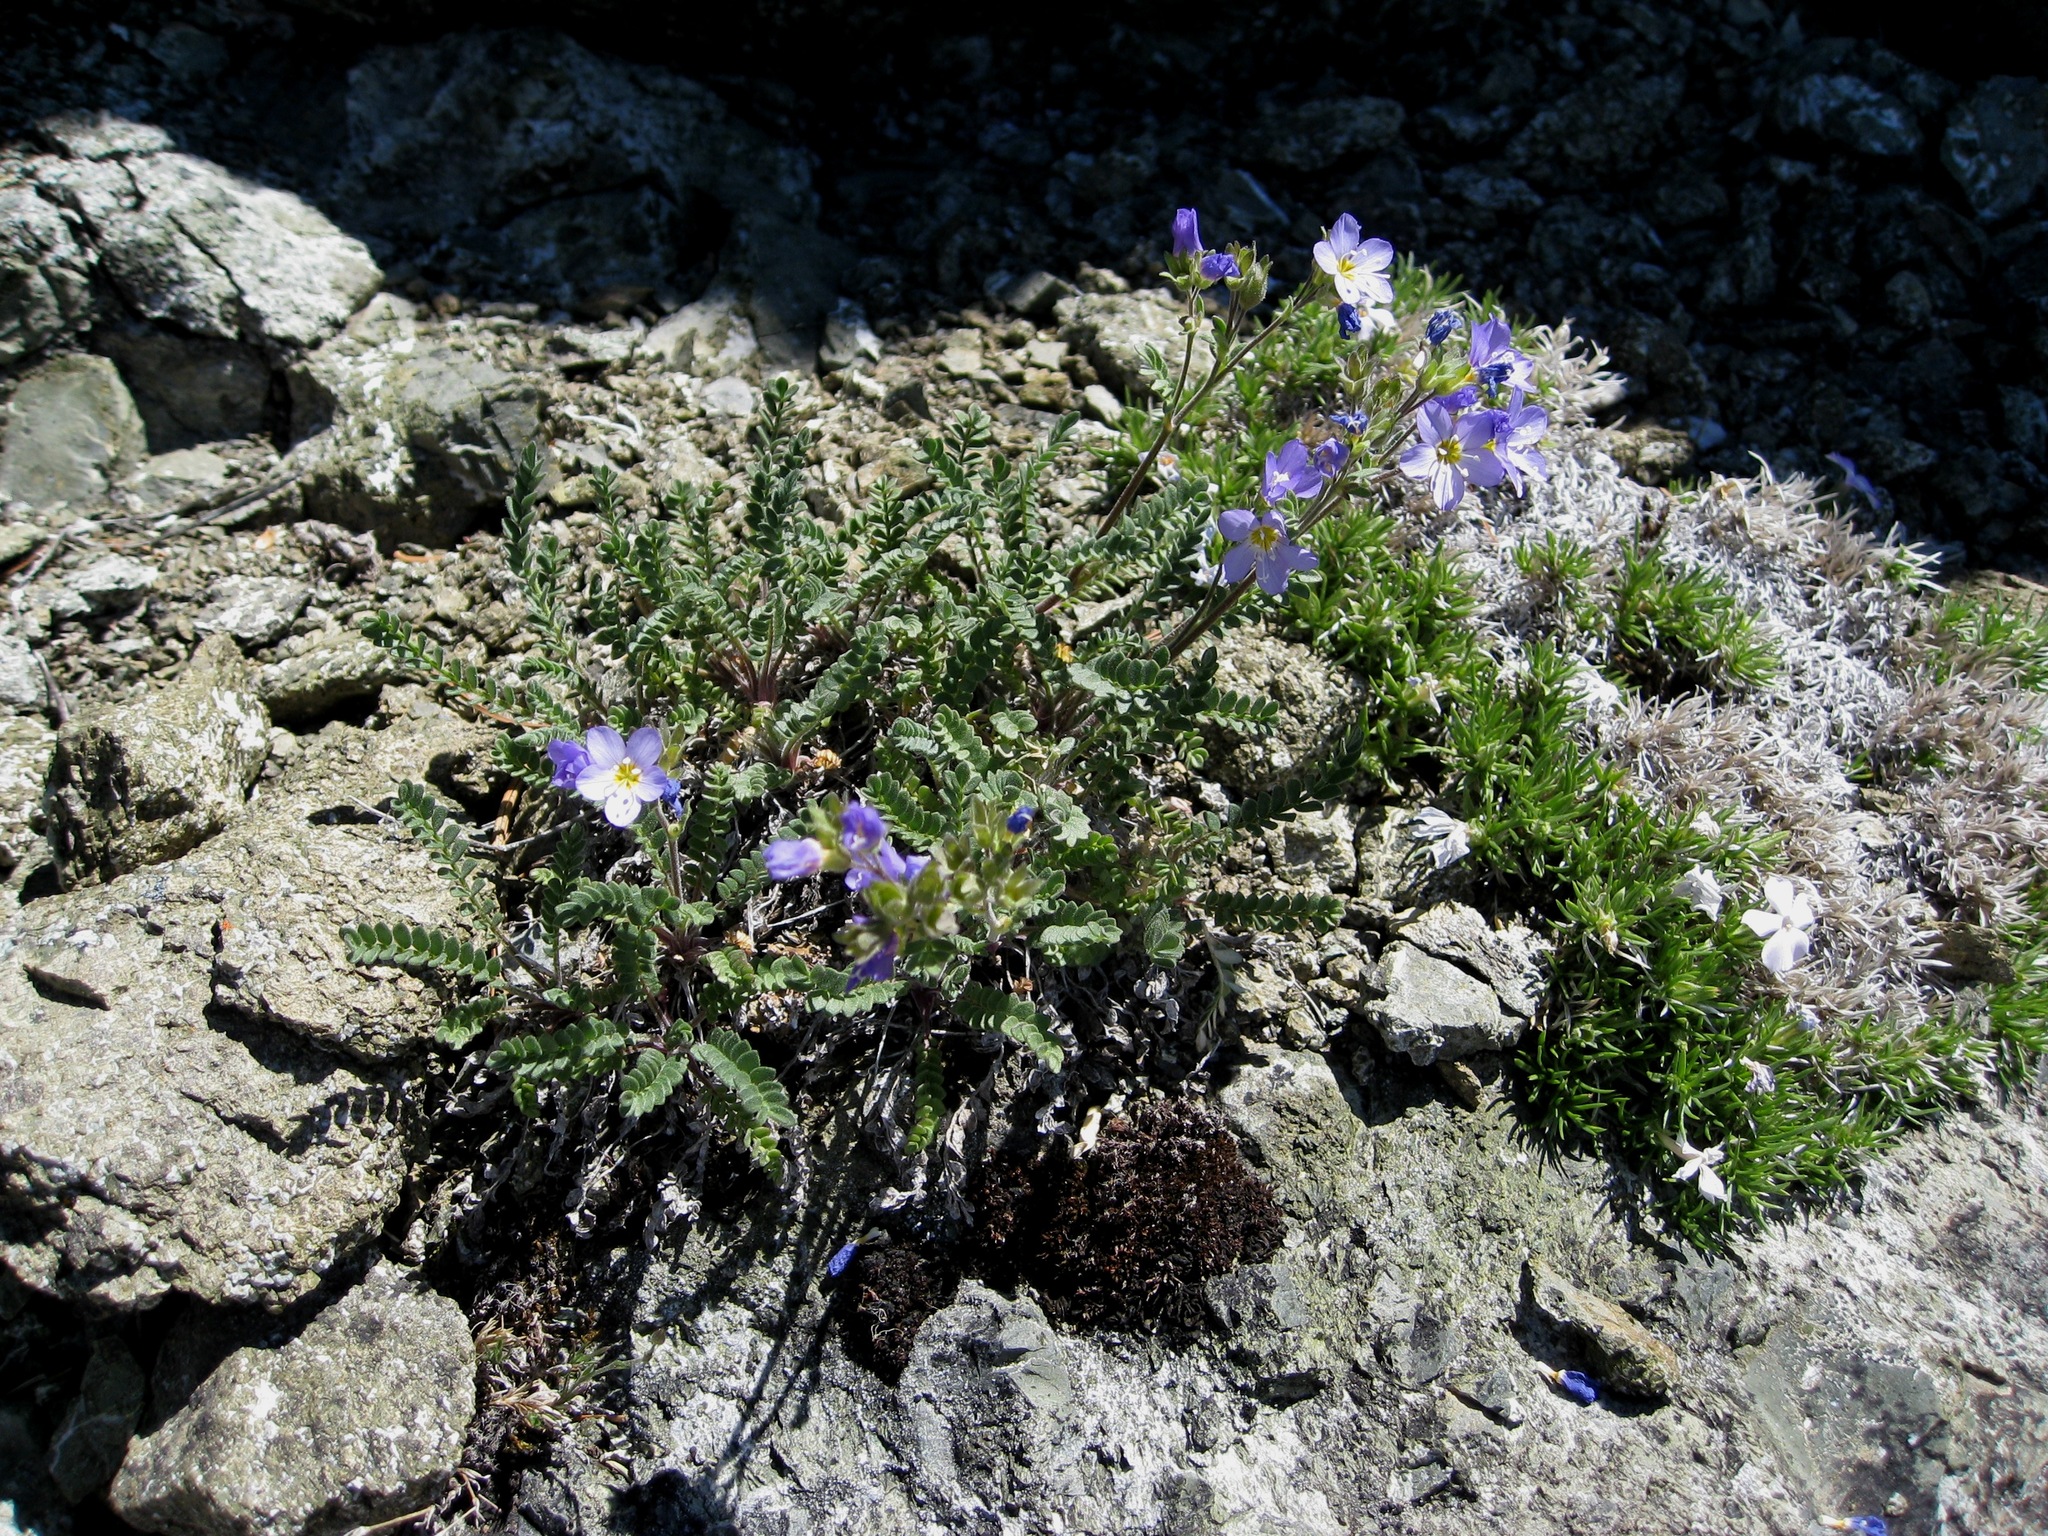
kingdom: Plantae
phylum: Tracheophyta
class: Magnoliopsida
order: Ericales
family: Polemoniaceae
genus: Polemonium
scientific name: Polemonium pulcherrimum
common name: Short jacob's-ladder
